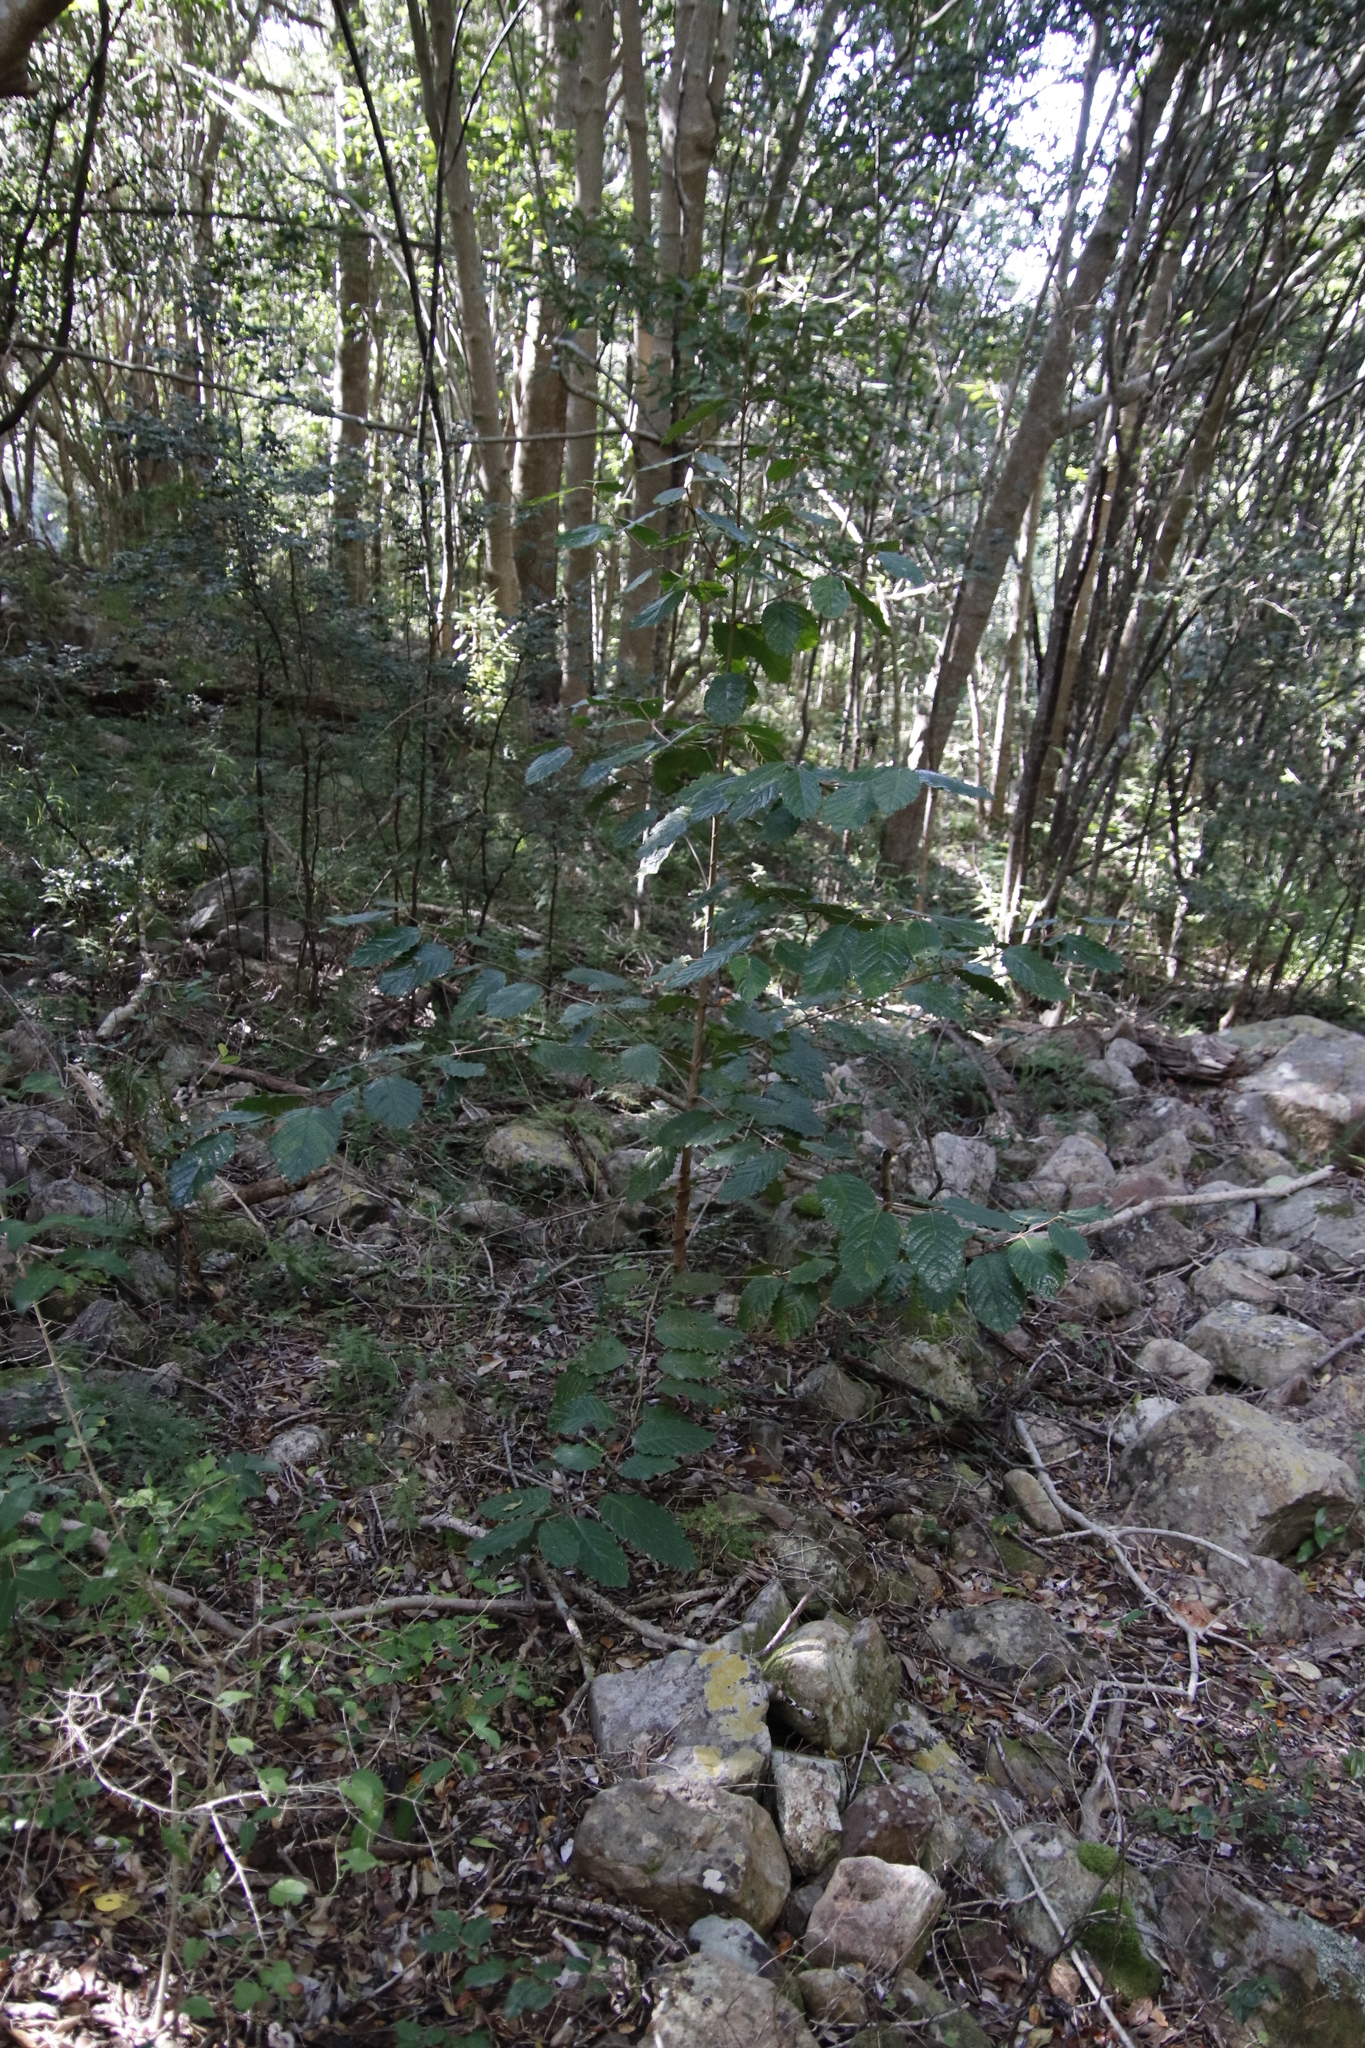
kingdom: Plantae
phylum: Tracheophyta
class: Magnoliopsida
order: Cornales
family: Curtisiaceae
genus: Curtisia
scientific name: Curtisia dentata
